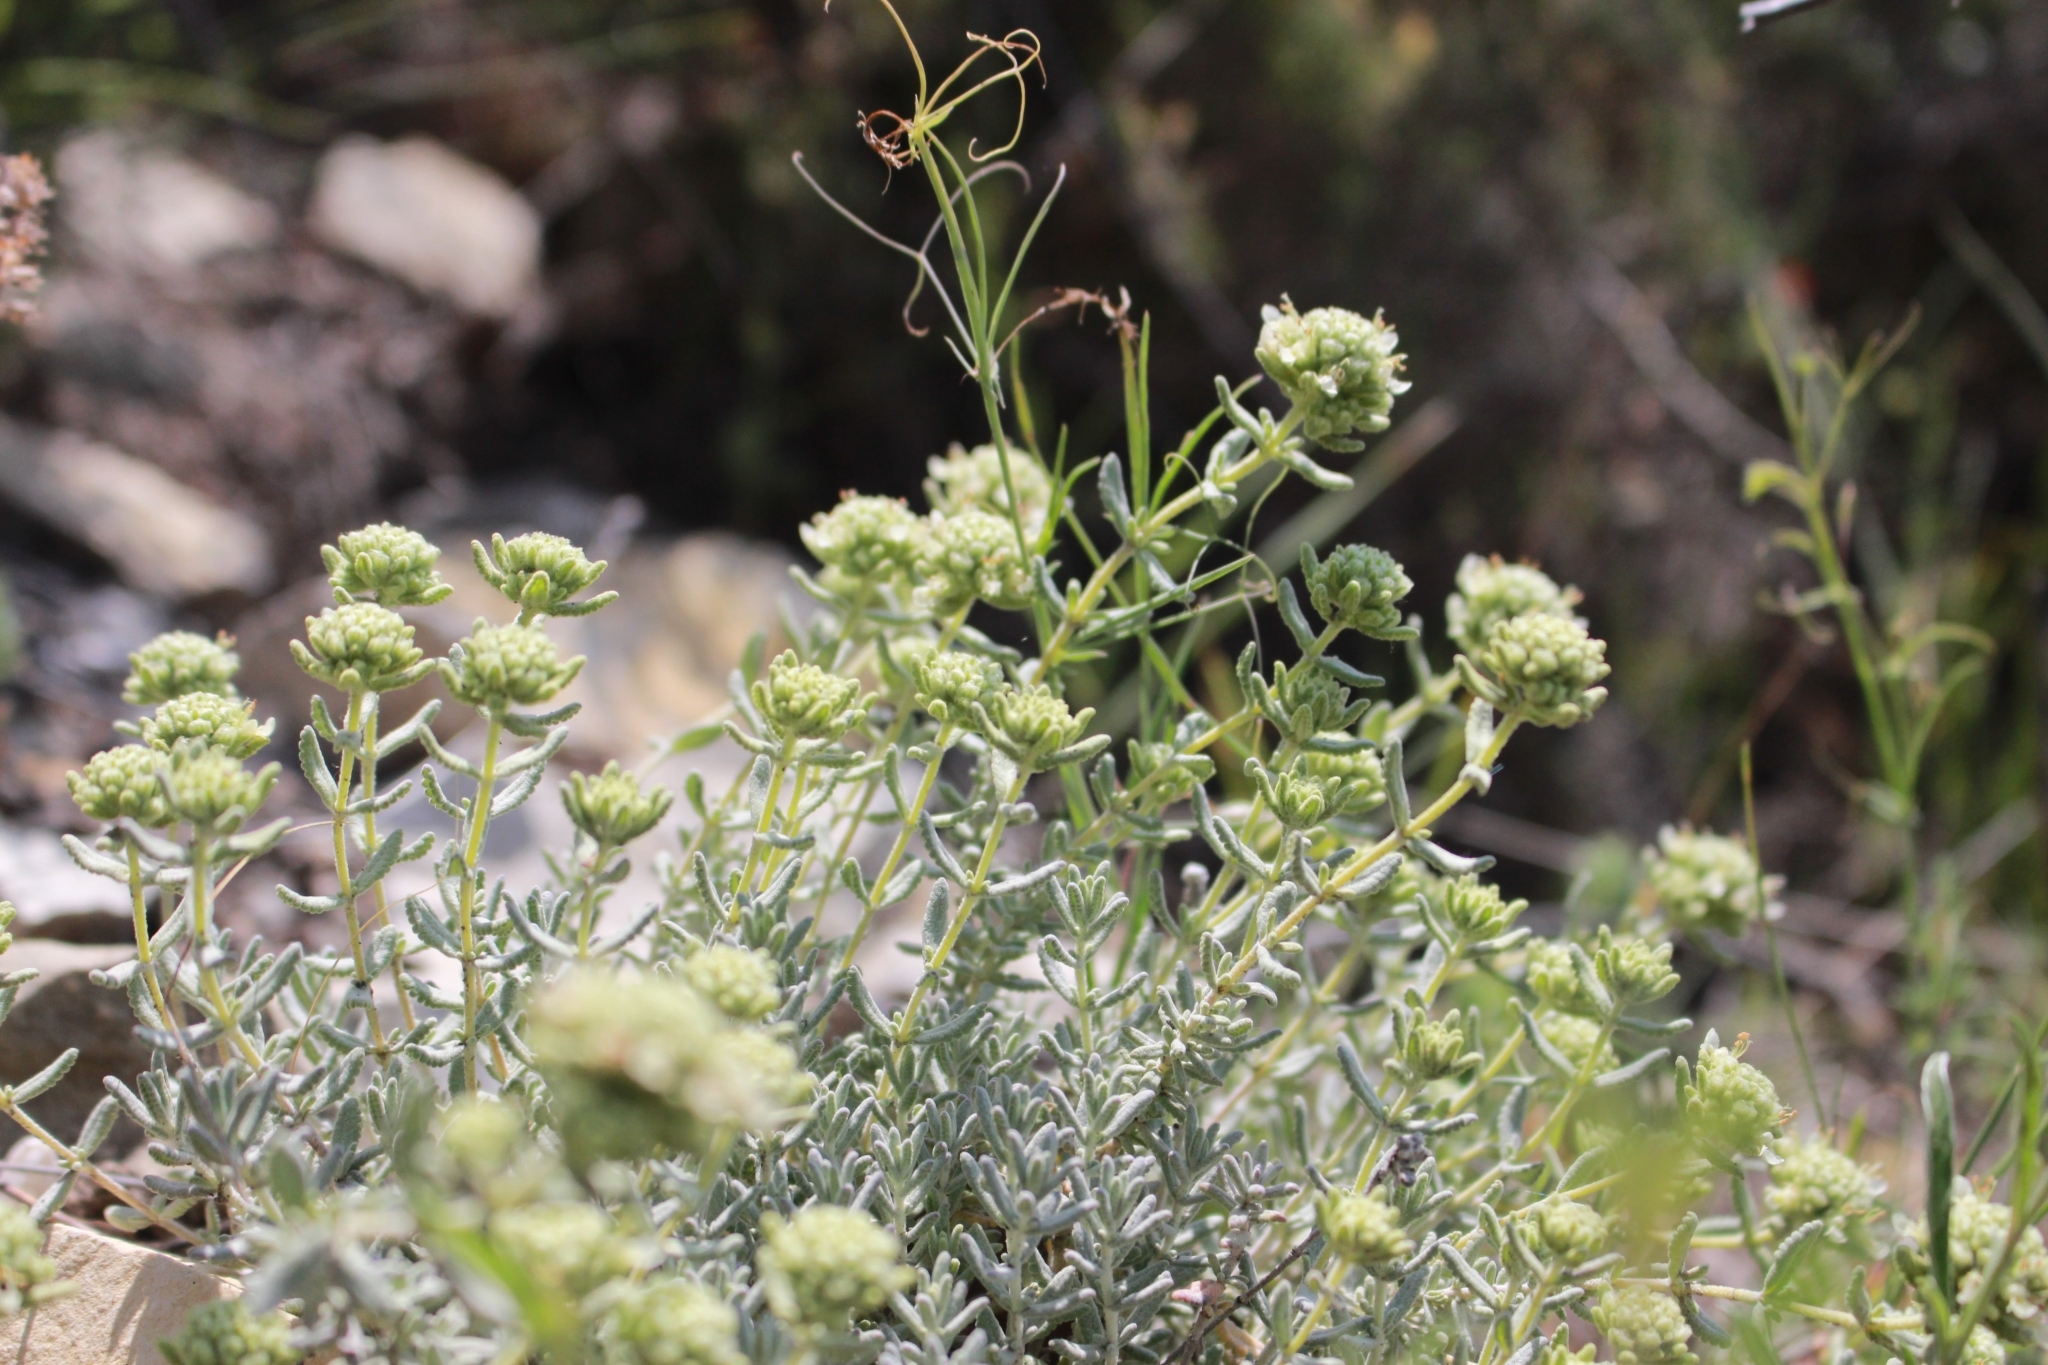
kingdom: Plantae
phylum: Tracheophyta
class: Magnoliopsida
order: Lamiales
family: Lamiaceae
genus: Teucrium
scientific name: Teucrium polium
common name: Poley
